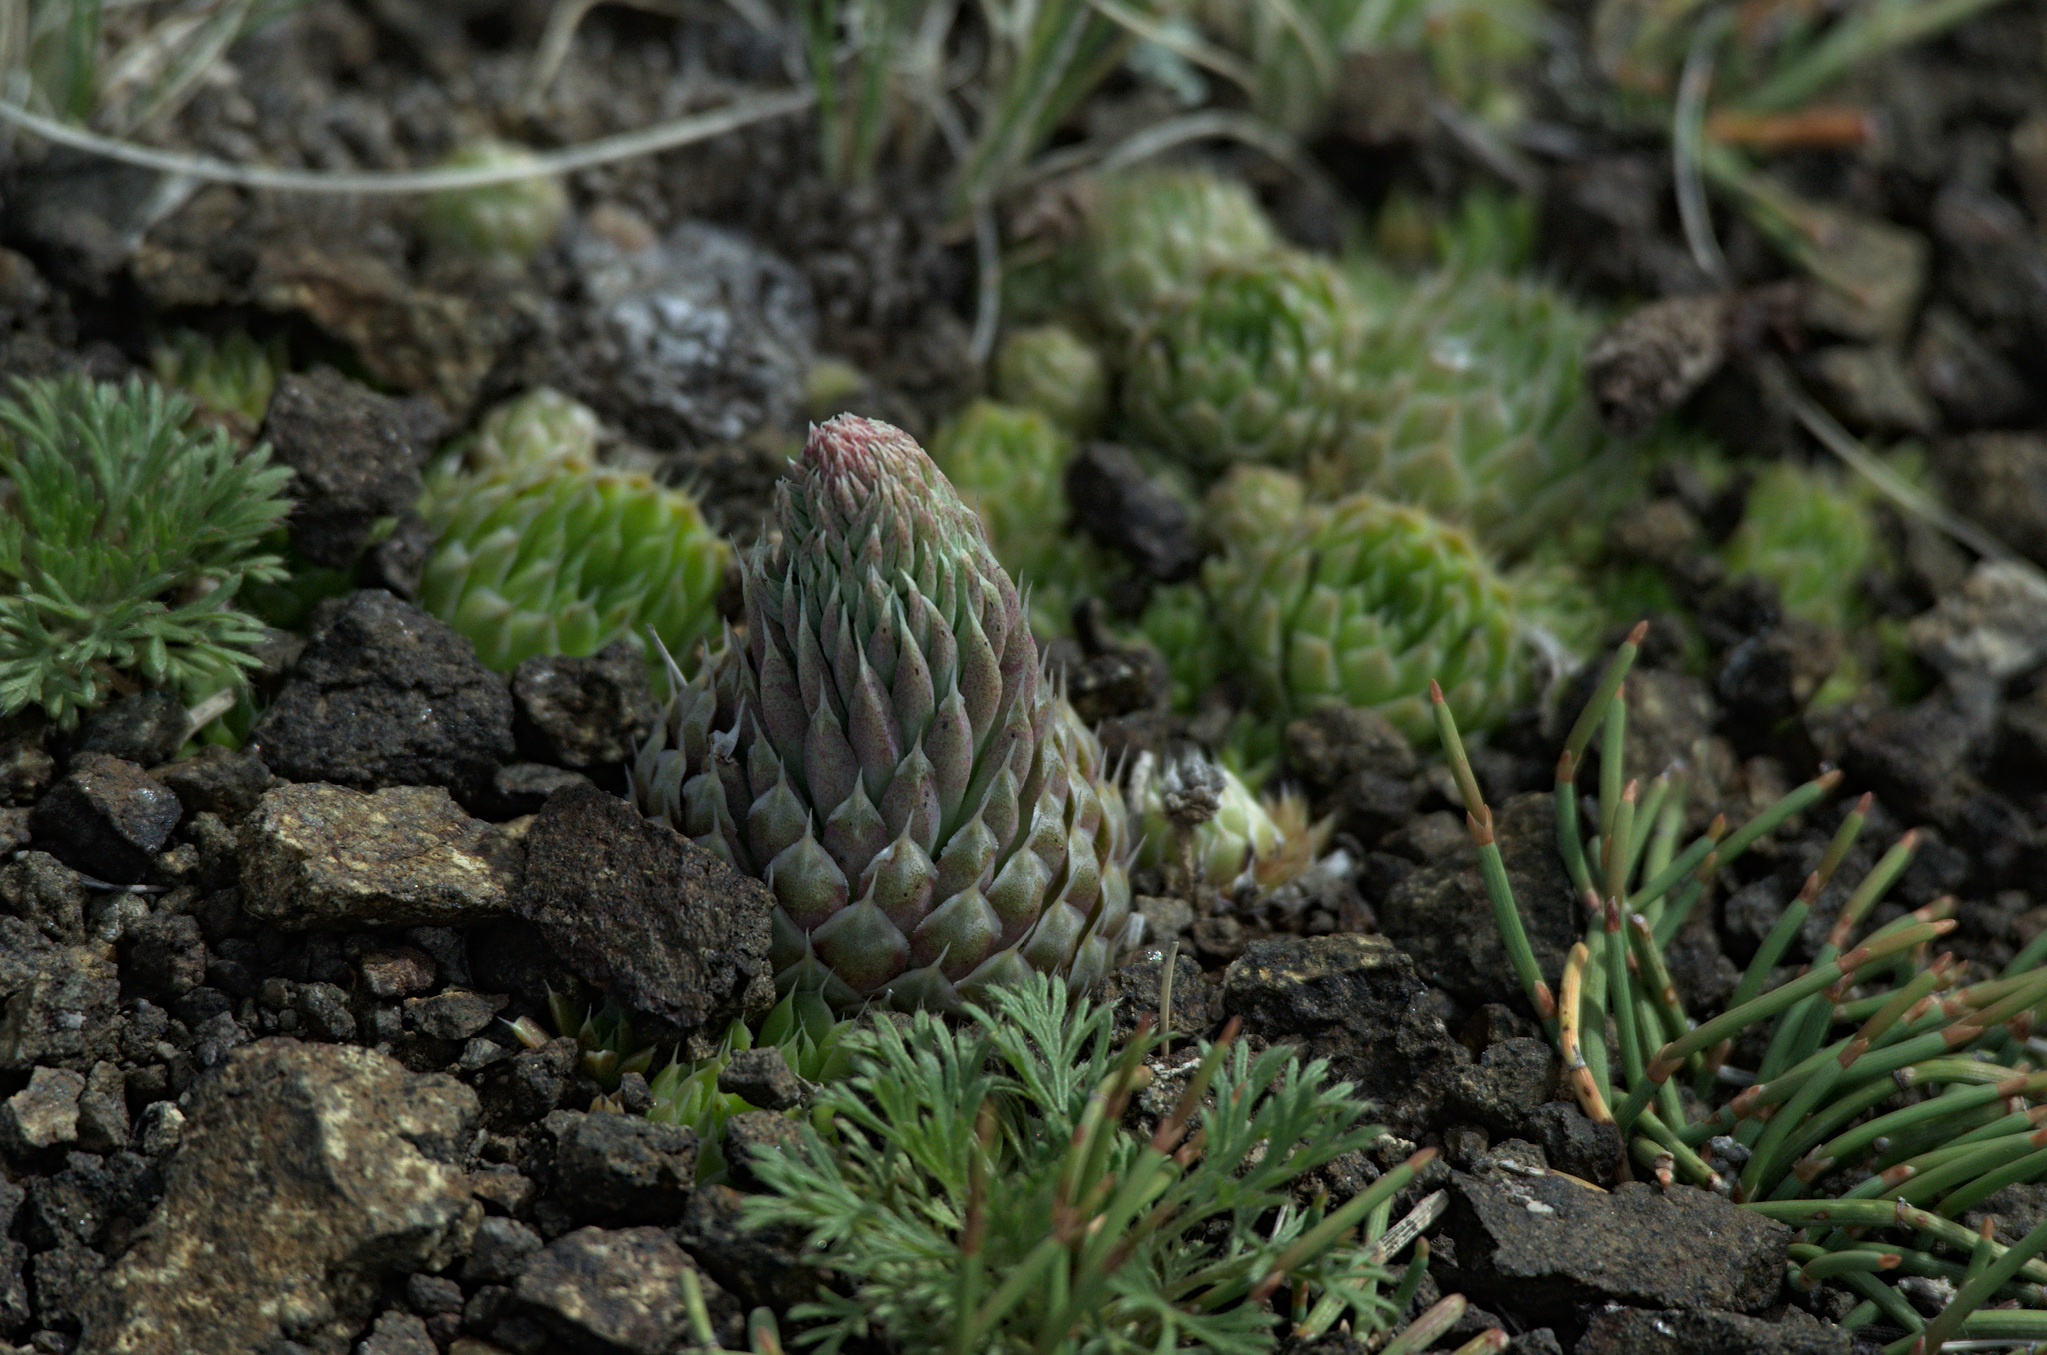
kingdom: Plantae
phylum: Tracheophyta
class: Magnoliopsida
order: Saxifragales
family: Crassulaceae
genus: Orostachys
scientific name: Orostachys spinosa
